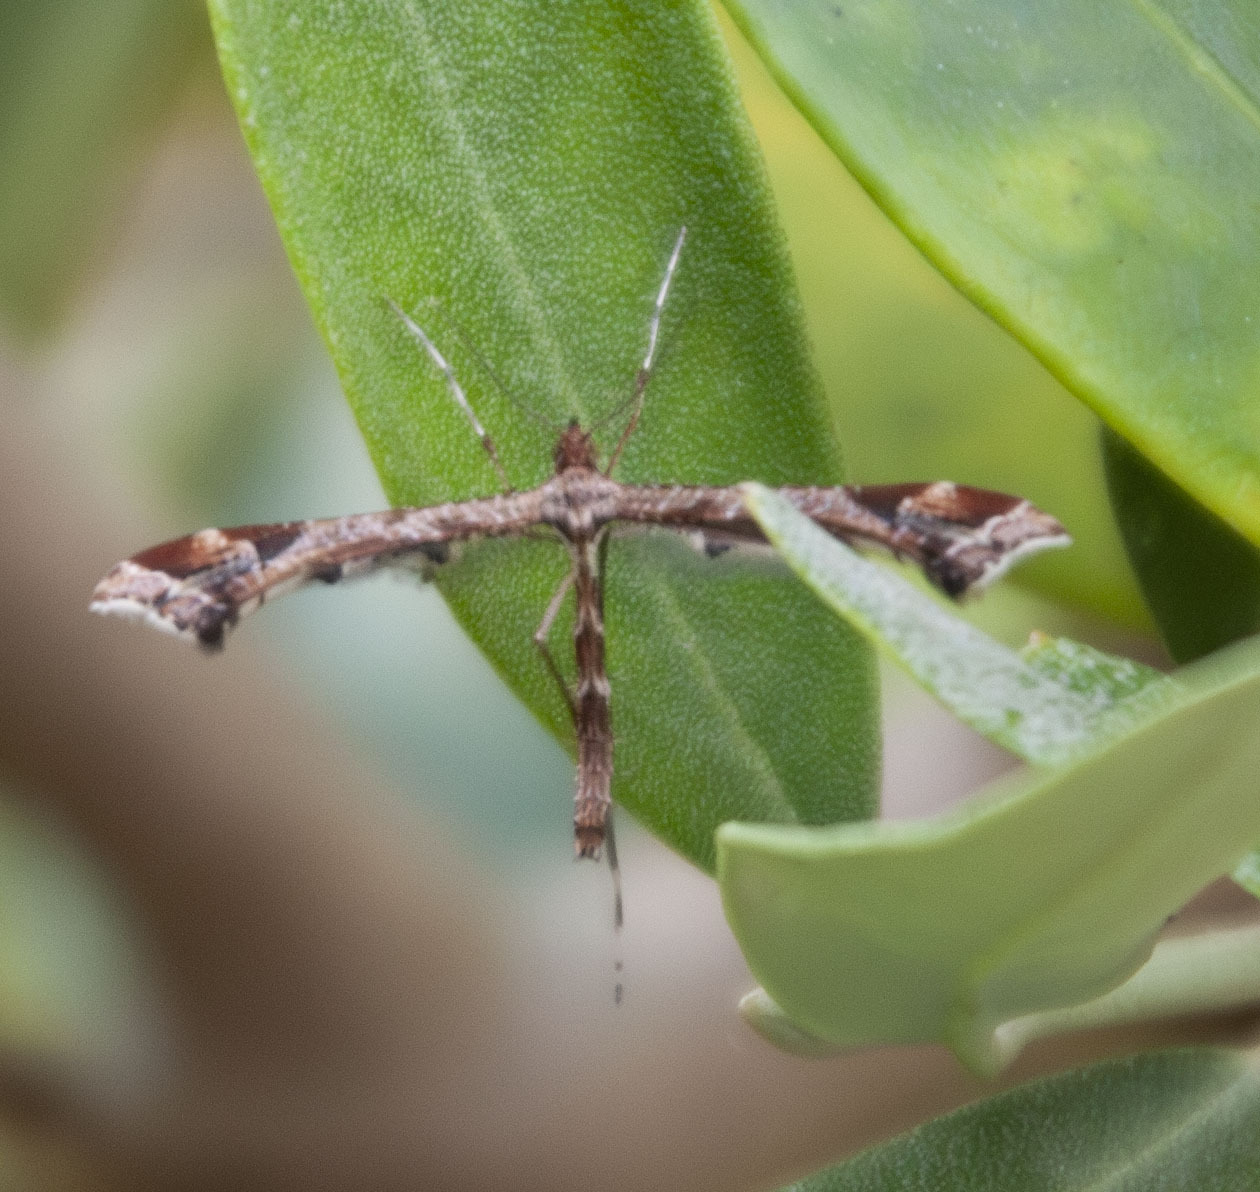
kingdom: Animalia
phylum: Arthropoda
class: Insecta
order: Lepidoptera
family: Pterophoridae
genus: Amblyptilia
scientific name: Amblyptilia acanthadactyla
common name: Beautiful plume
